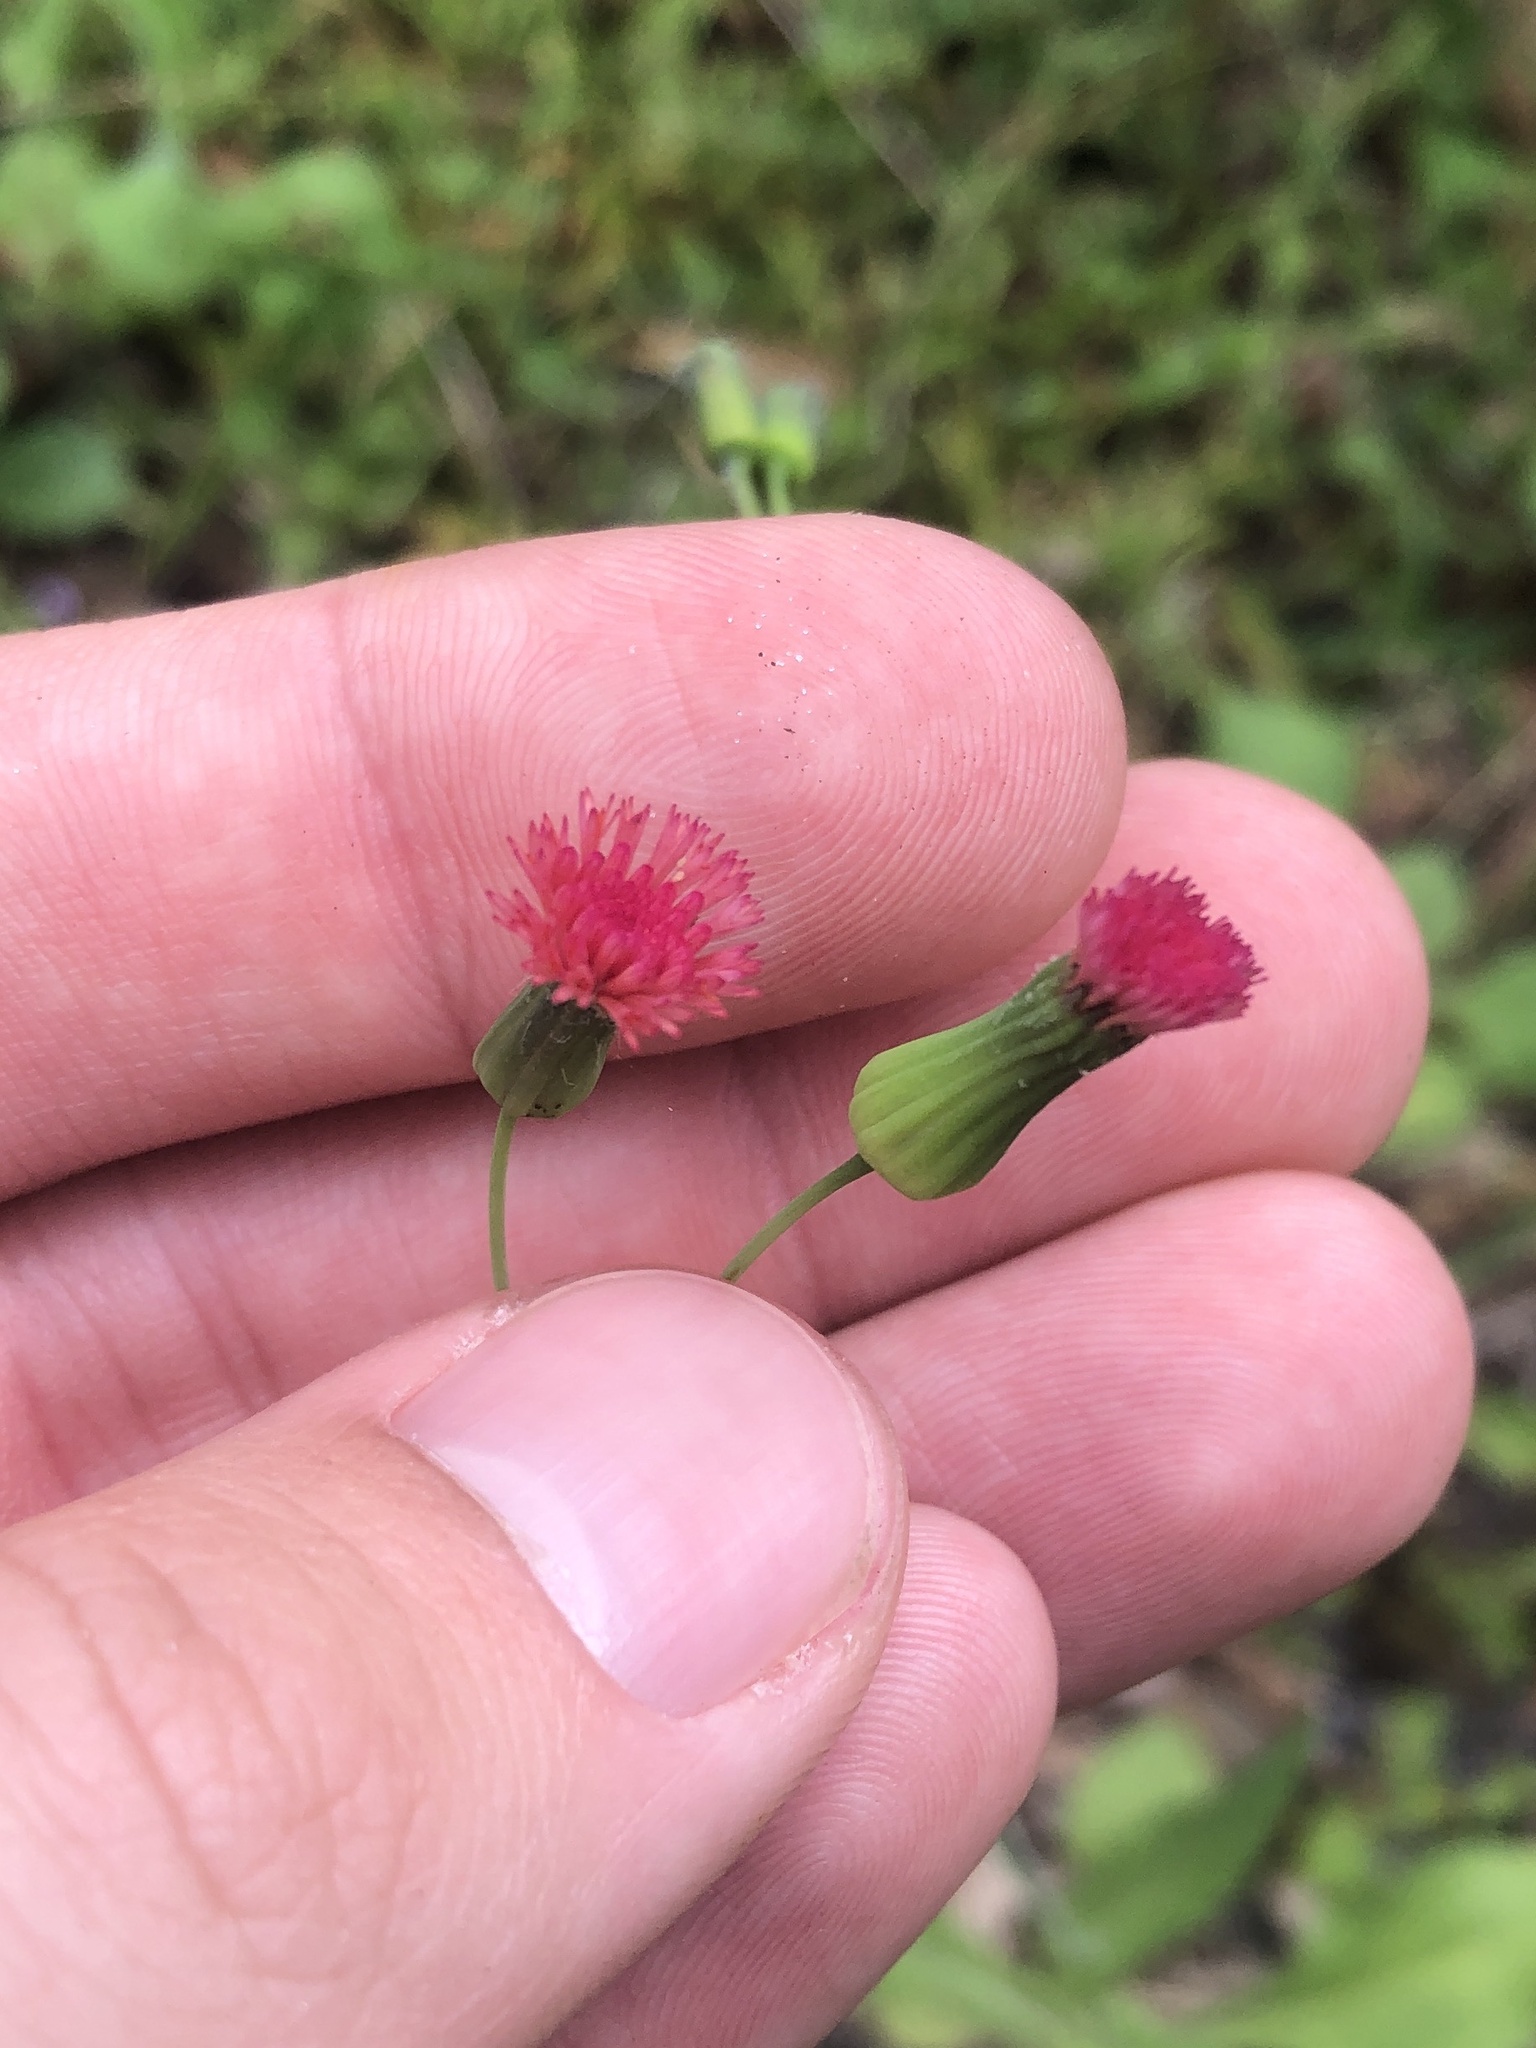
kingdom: Plantae
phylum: Tracheophyta
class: Magnoliopsida
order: Asterales
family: Asteraceae
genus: Emilia
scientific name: Emilia fosbergii
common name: Florida tasselflower
